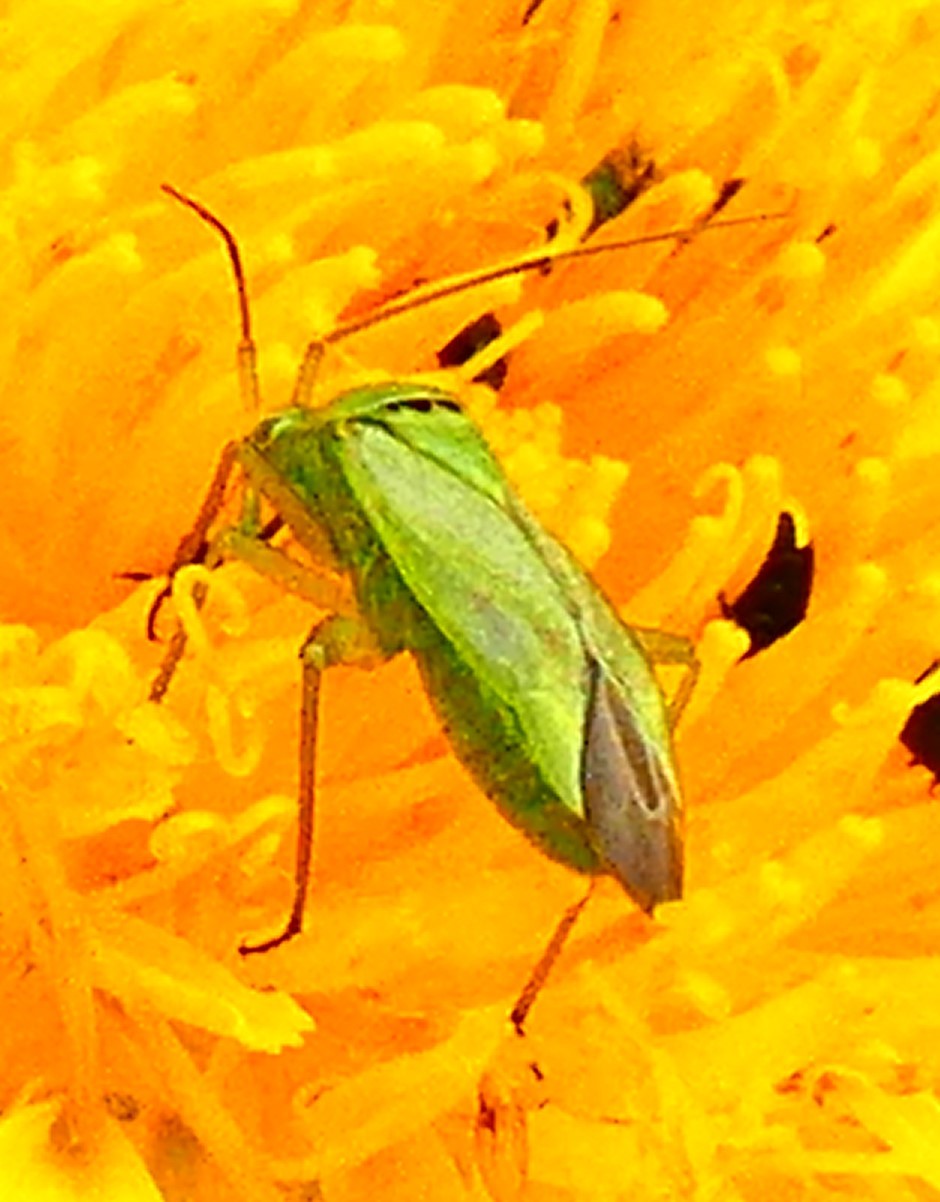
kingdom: Animalia
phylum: Arthropoda
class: Insecta
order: Hemiptera
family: Miridae
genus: Closterotomus
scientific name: Closterotomus norvegicus
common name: Plant bug
